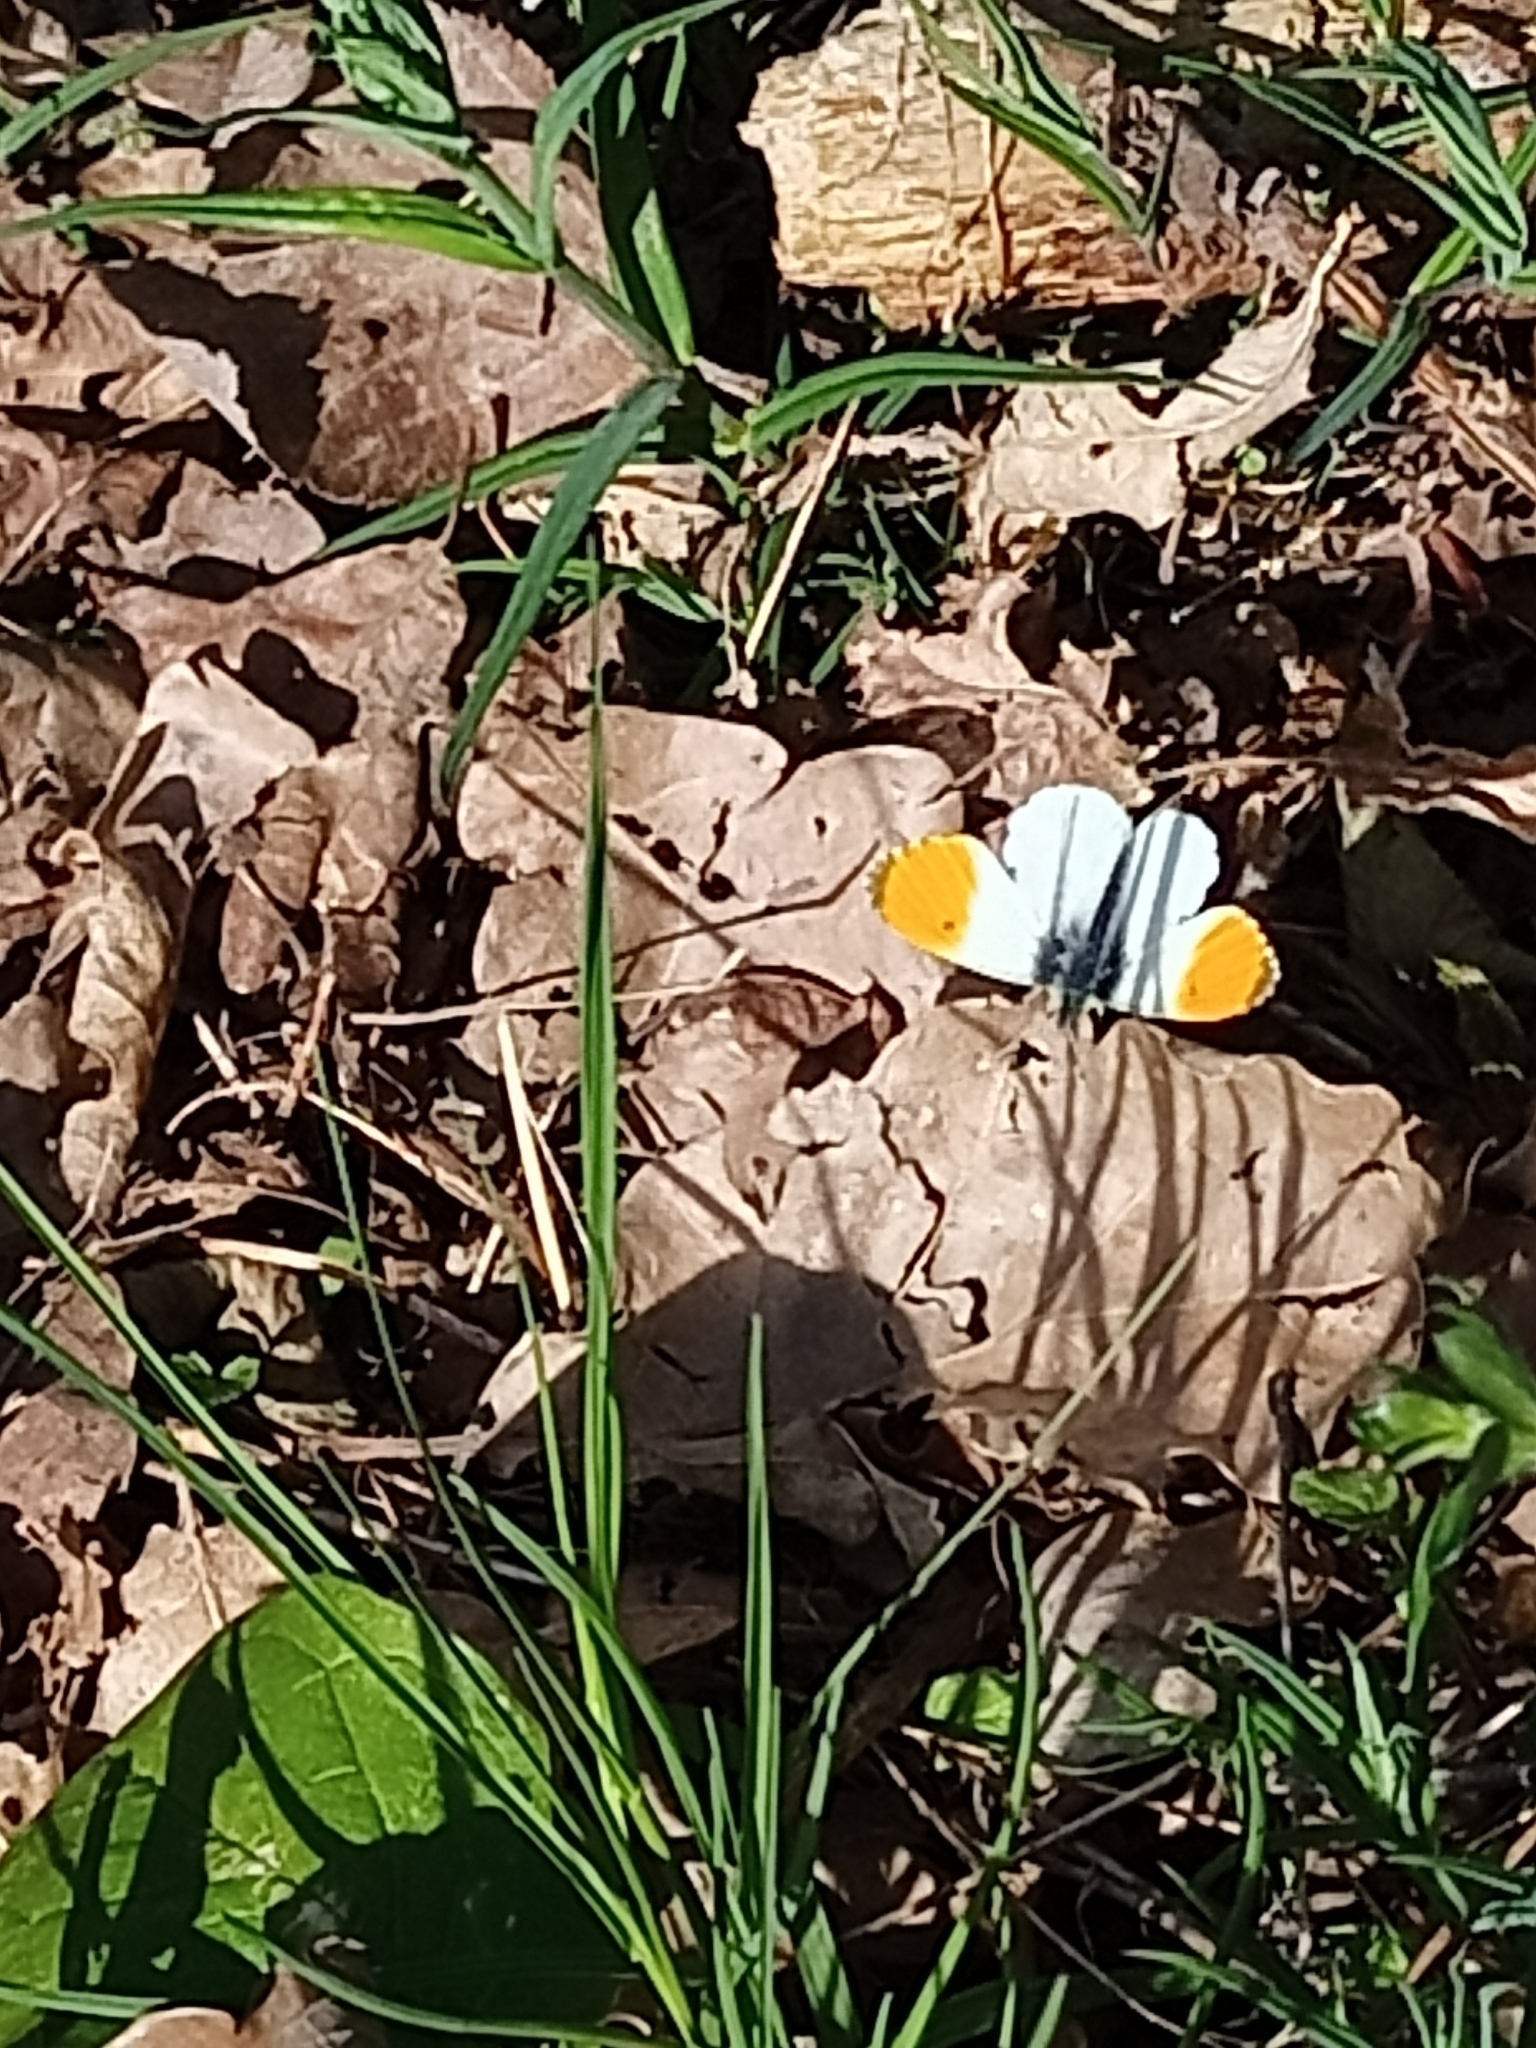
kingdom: Animalia
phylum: Arthropoda
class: Insecta
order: Lepidoptera
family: Pieridae
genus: Anthocharis
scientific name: Anthocharis cardamines
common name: Orange-tip
